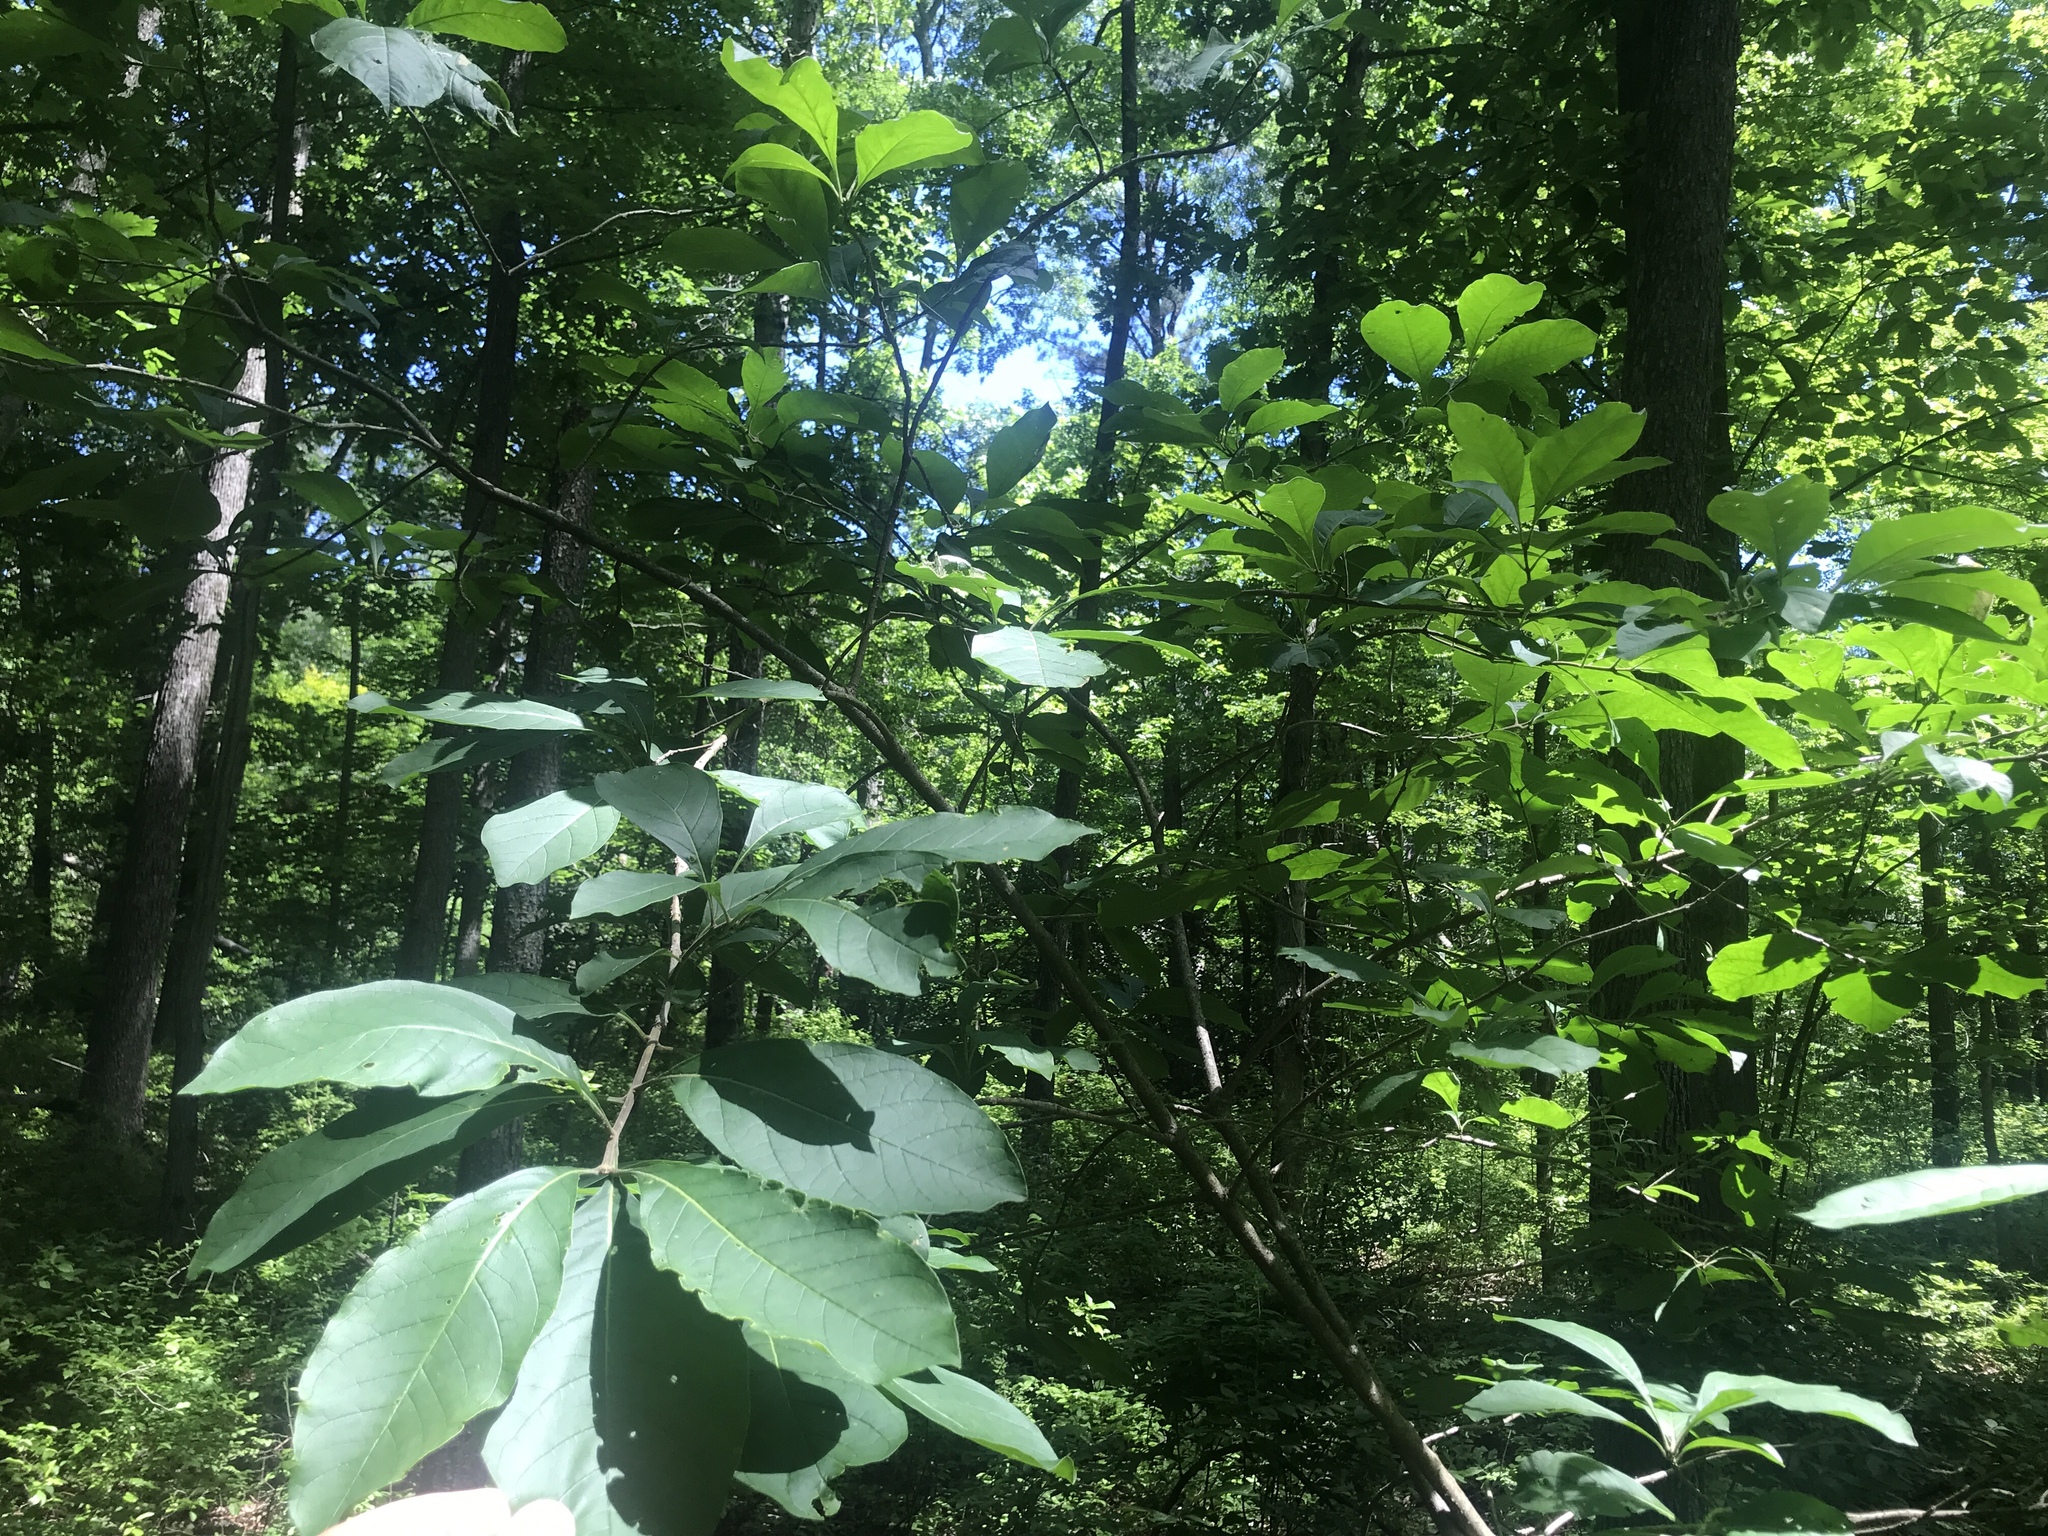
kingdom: Plantae
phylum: Tracheophyta
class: Magnoliopsida
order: Lamiales
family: Oleaceae
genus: Chionanthus
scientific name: Chionanthus virginicus
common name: American fringetree
